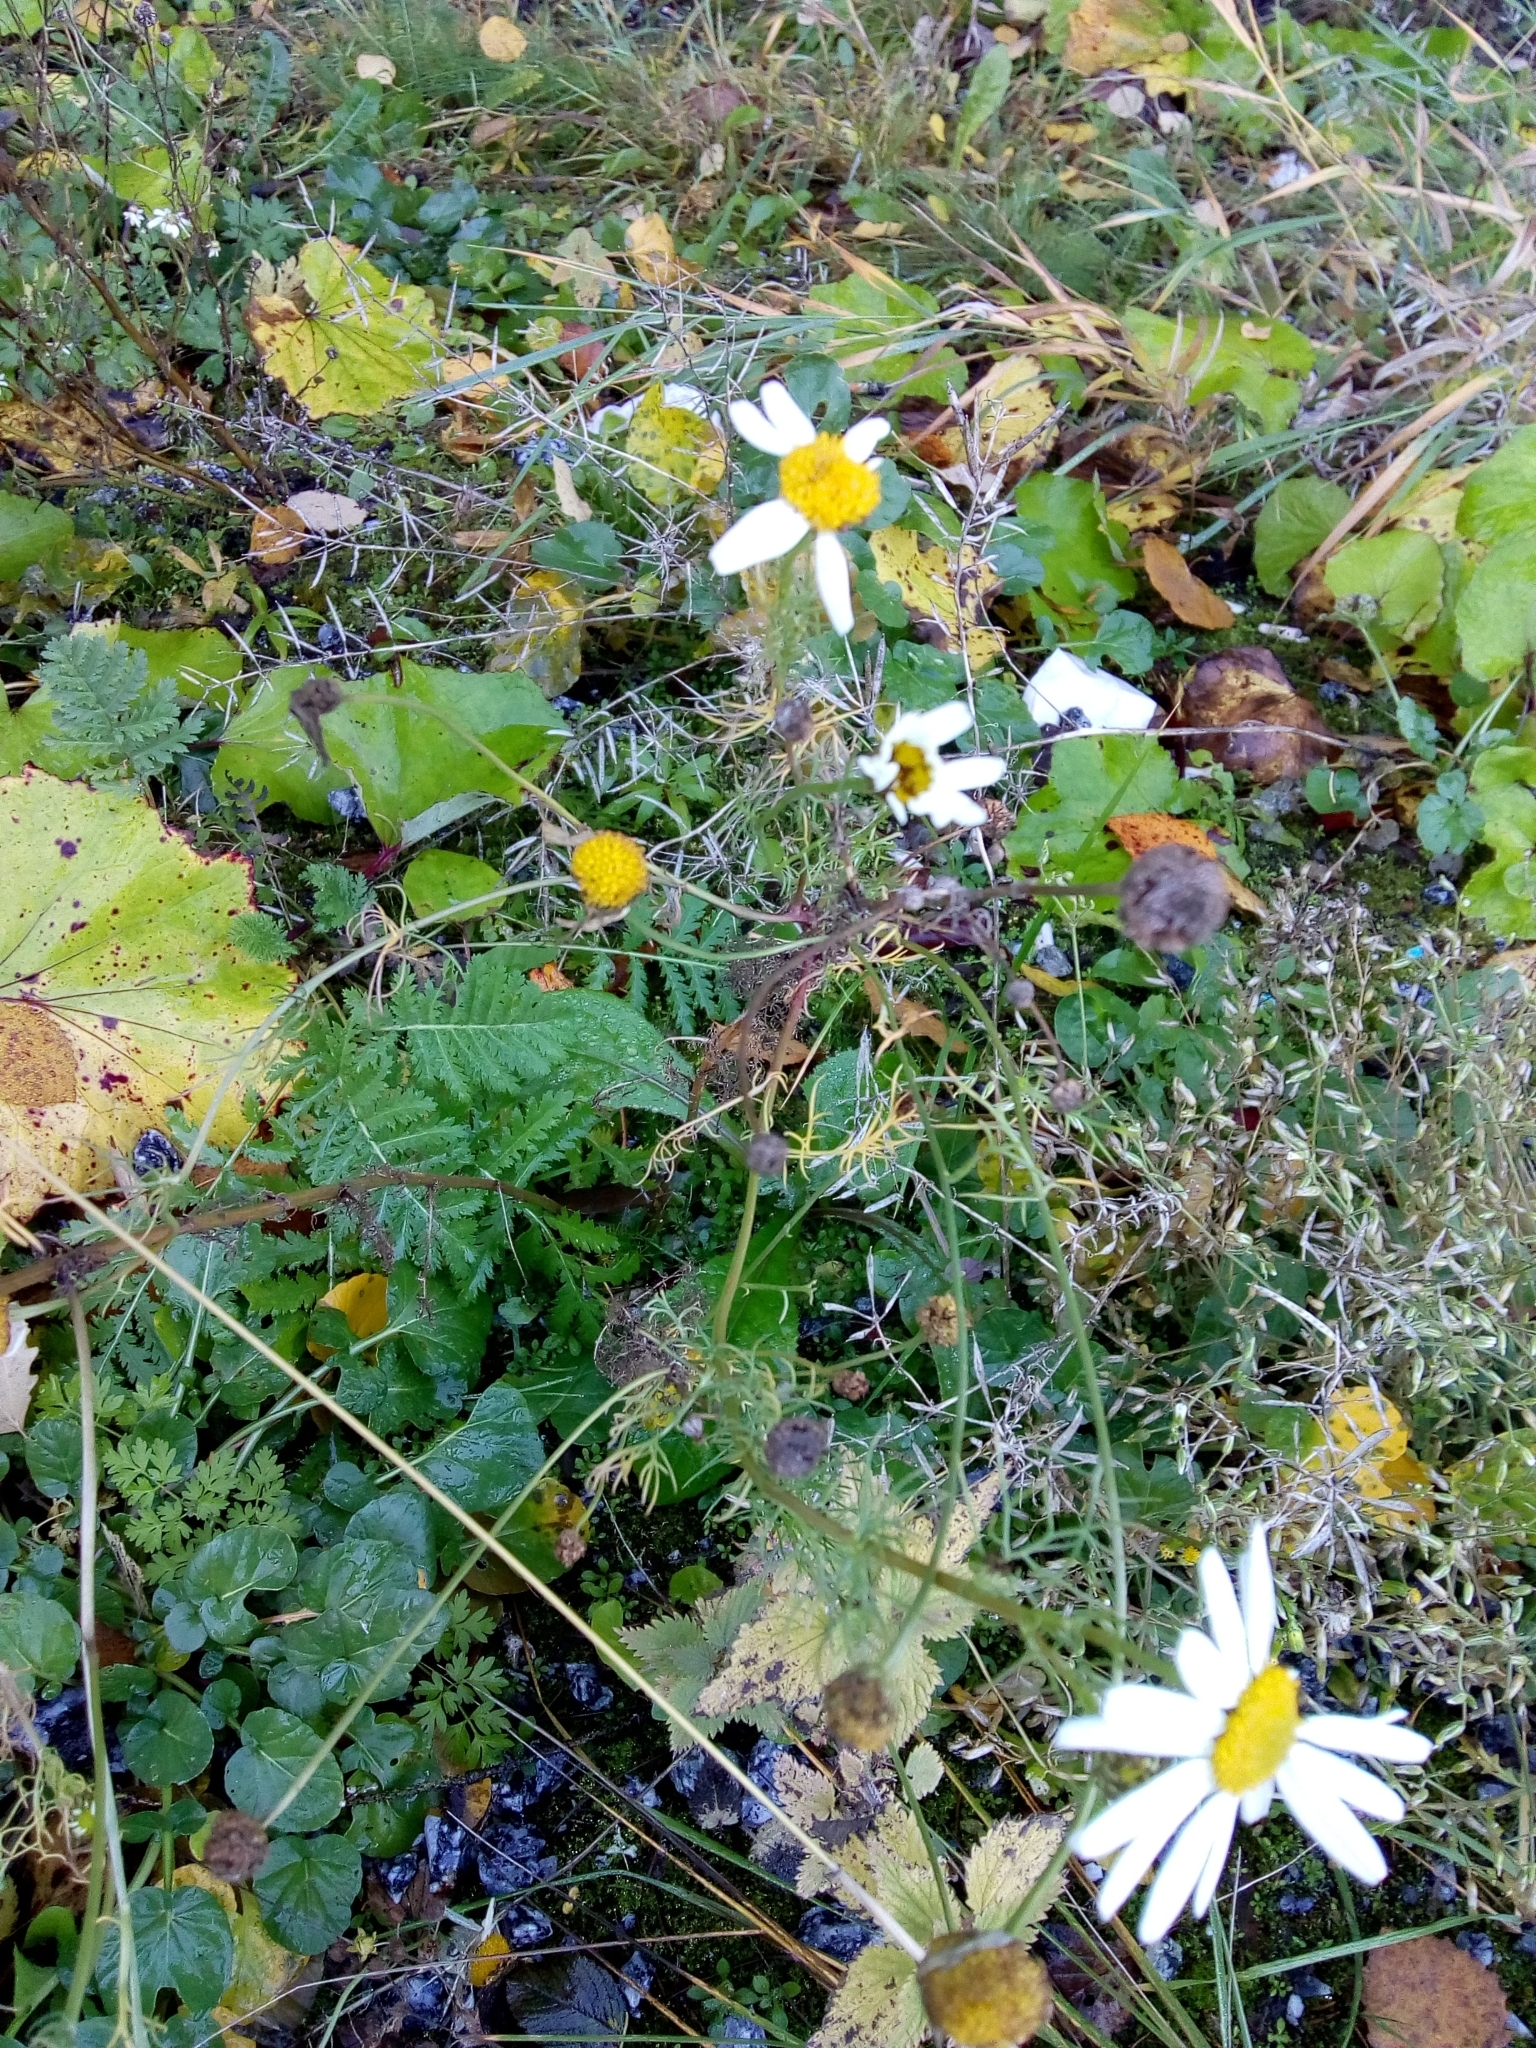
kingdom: Plantae
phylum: Tracheophyta
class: Magnoliopsida
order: Asterales
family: Asteraceae
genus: Tripleurospermum
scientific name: Tripleurospermum inodorum
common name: Scentless mayweed
